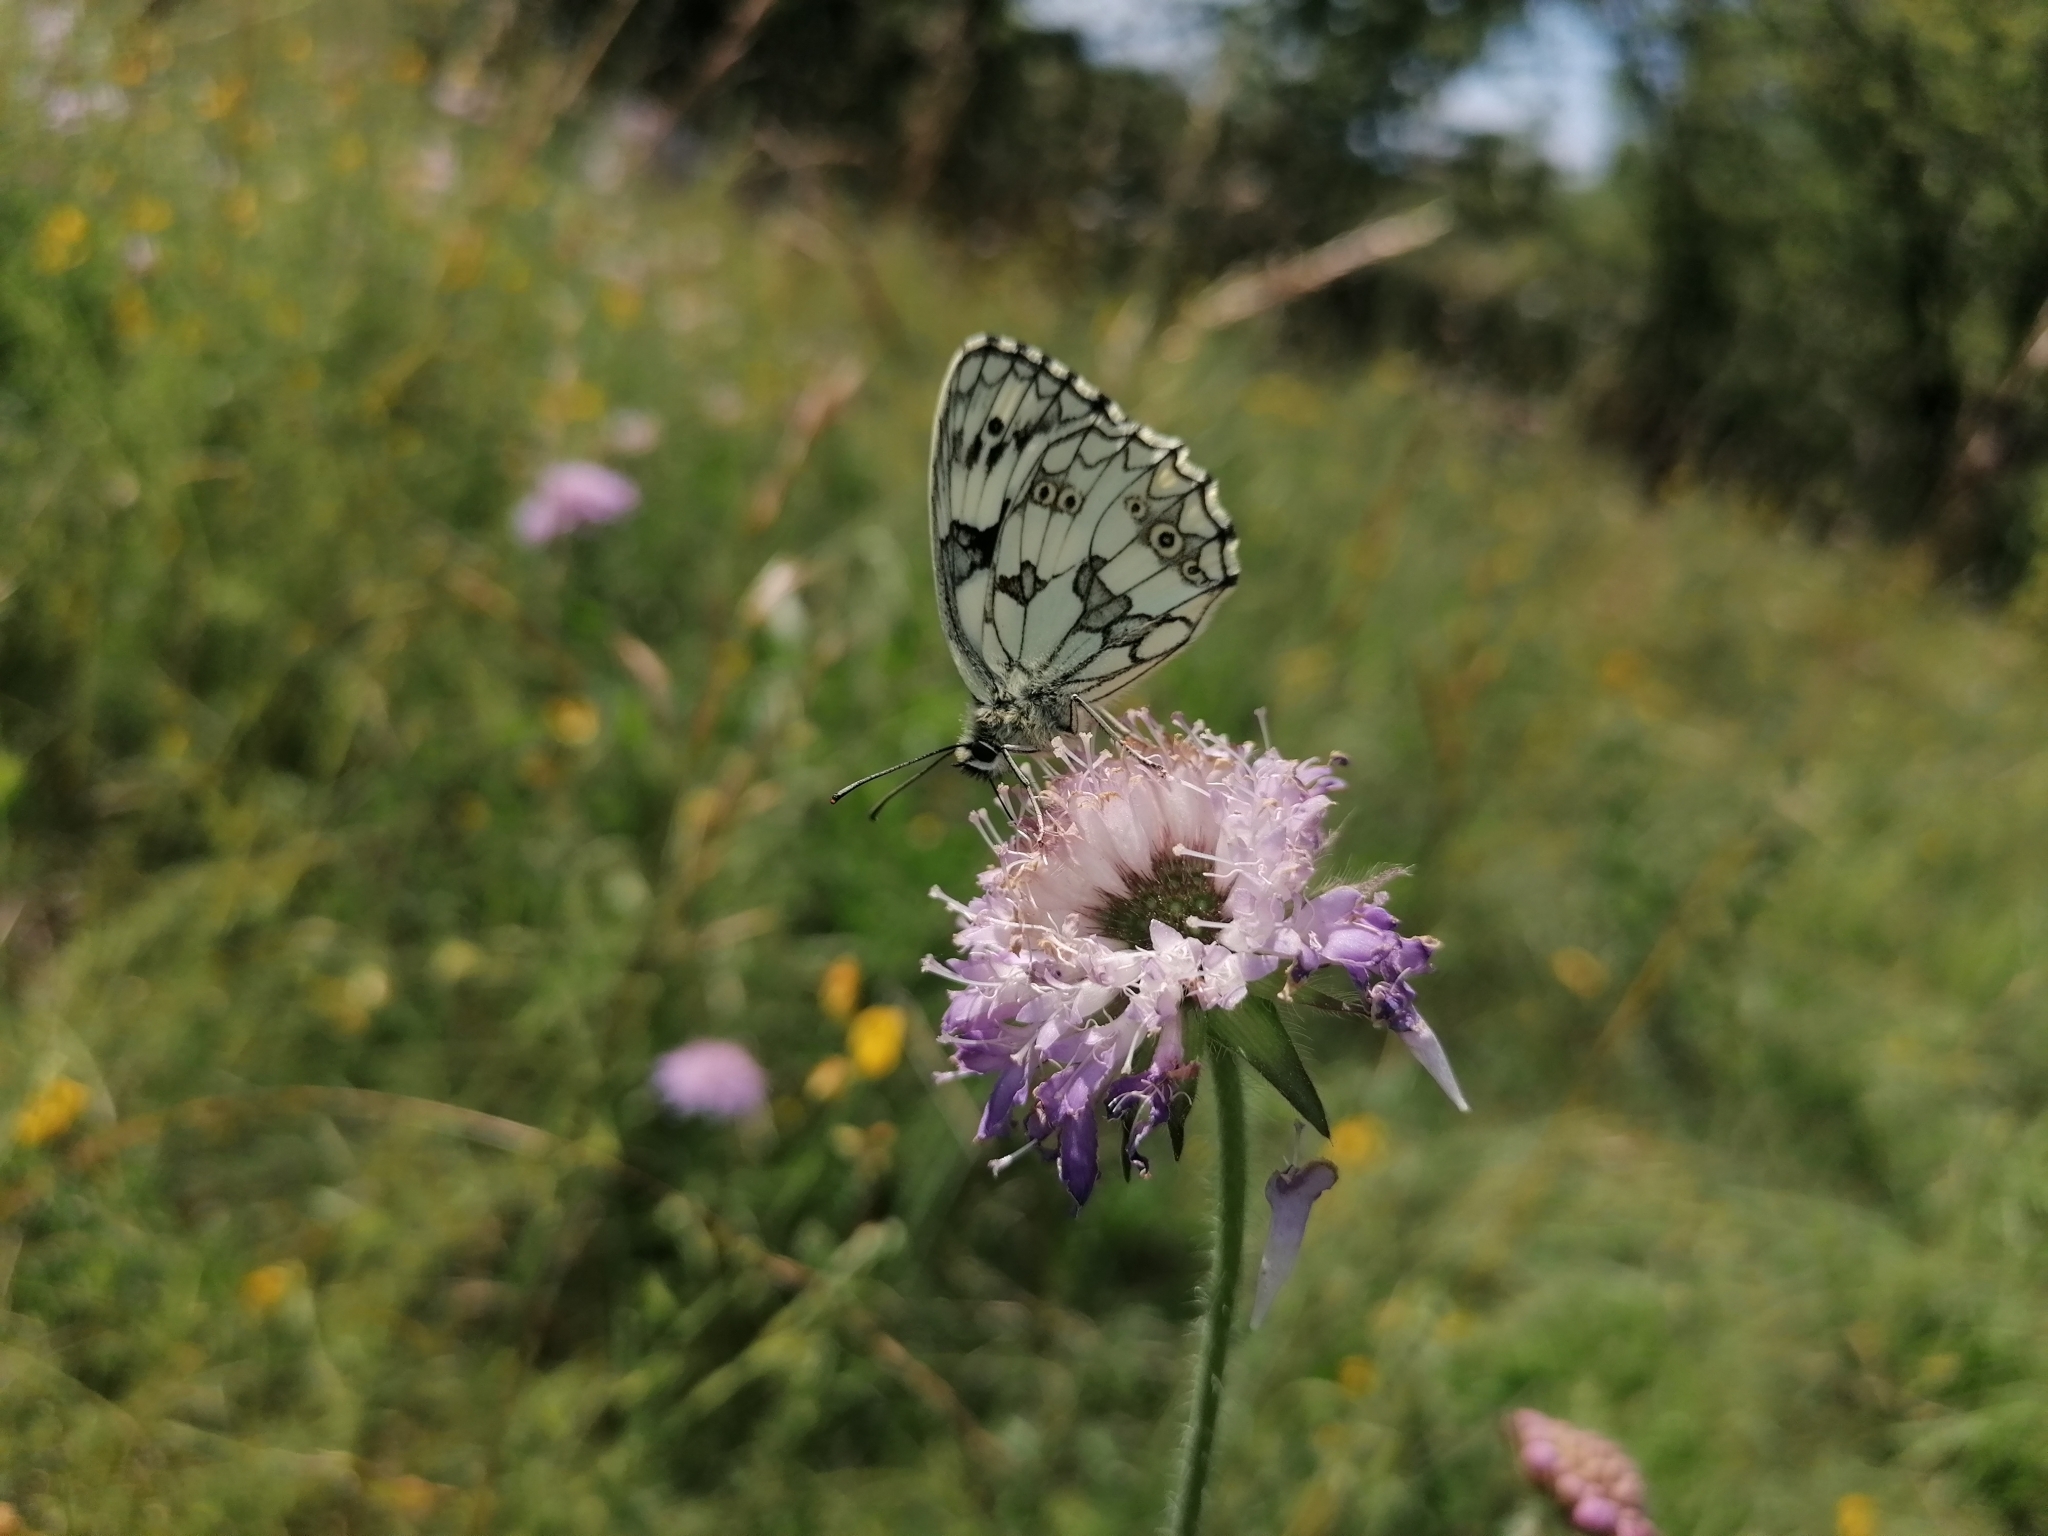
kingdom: Animalia
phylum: Arthropoda
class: Insecta
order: Lepidoptera
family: Nymphalidae
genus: Melanargia
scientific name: Melanargia galathea
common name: Marbled white
